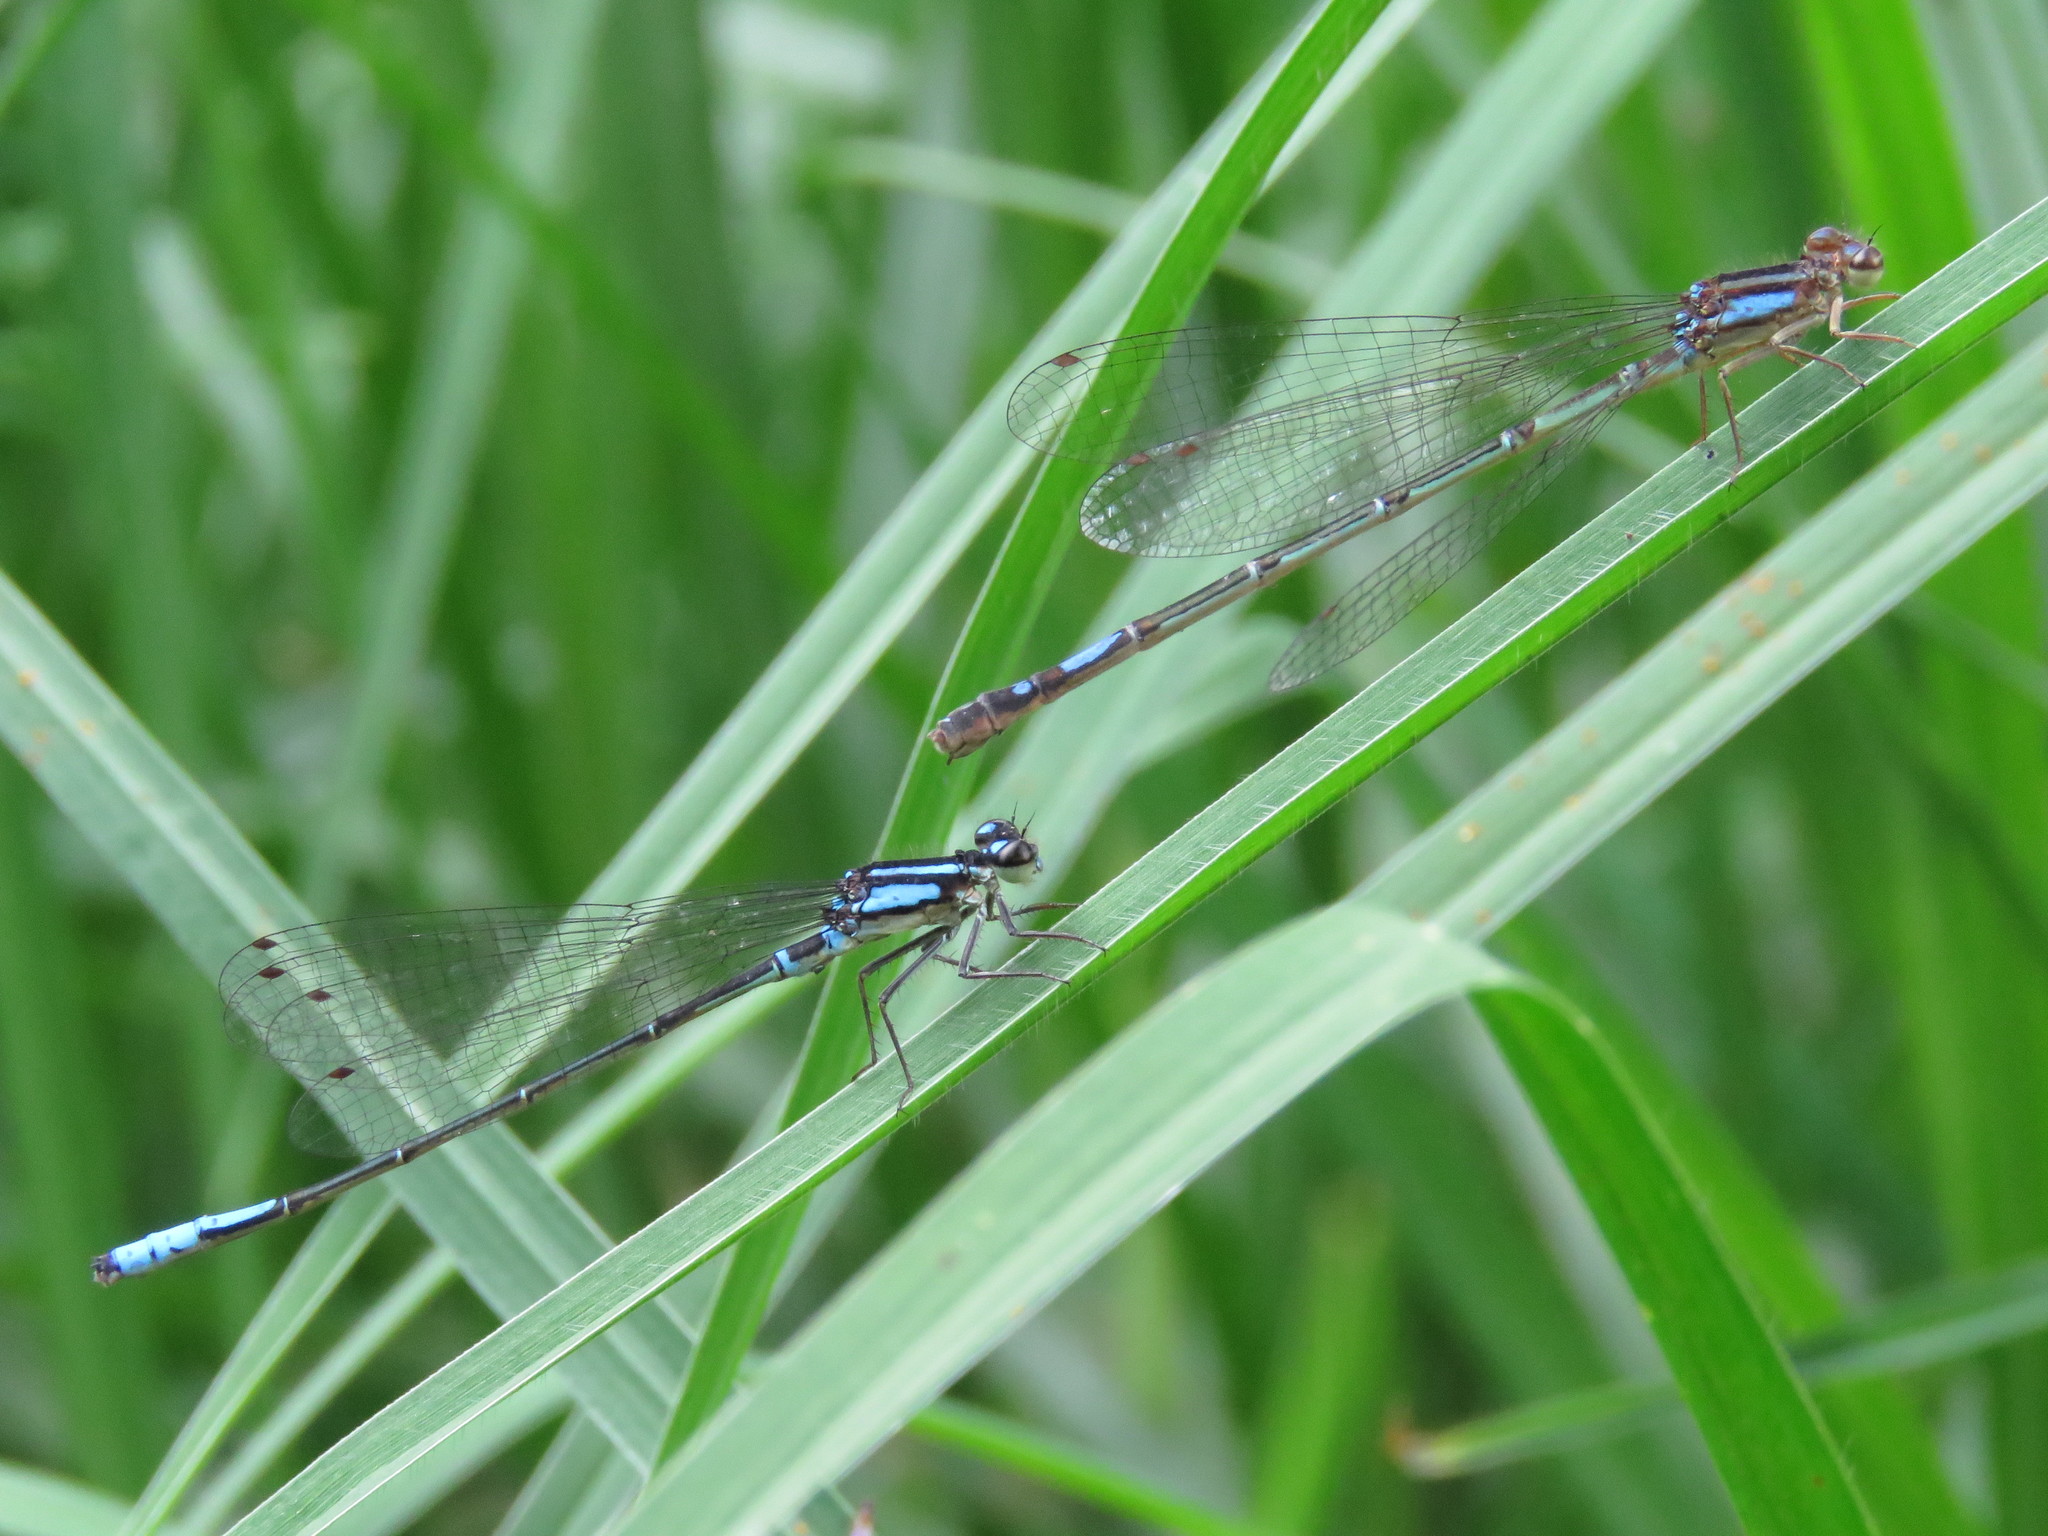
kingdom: Animalia
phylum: Arthropoda
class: Insecta
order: Odonata
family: Coenagrionidae
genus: Mesamphiagrion
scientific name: Mesamphiagrion laterale
